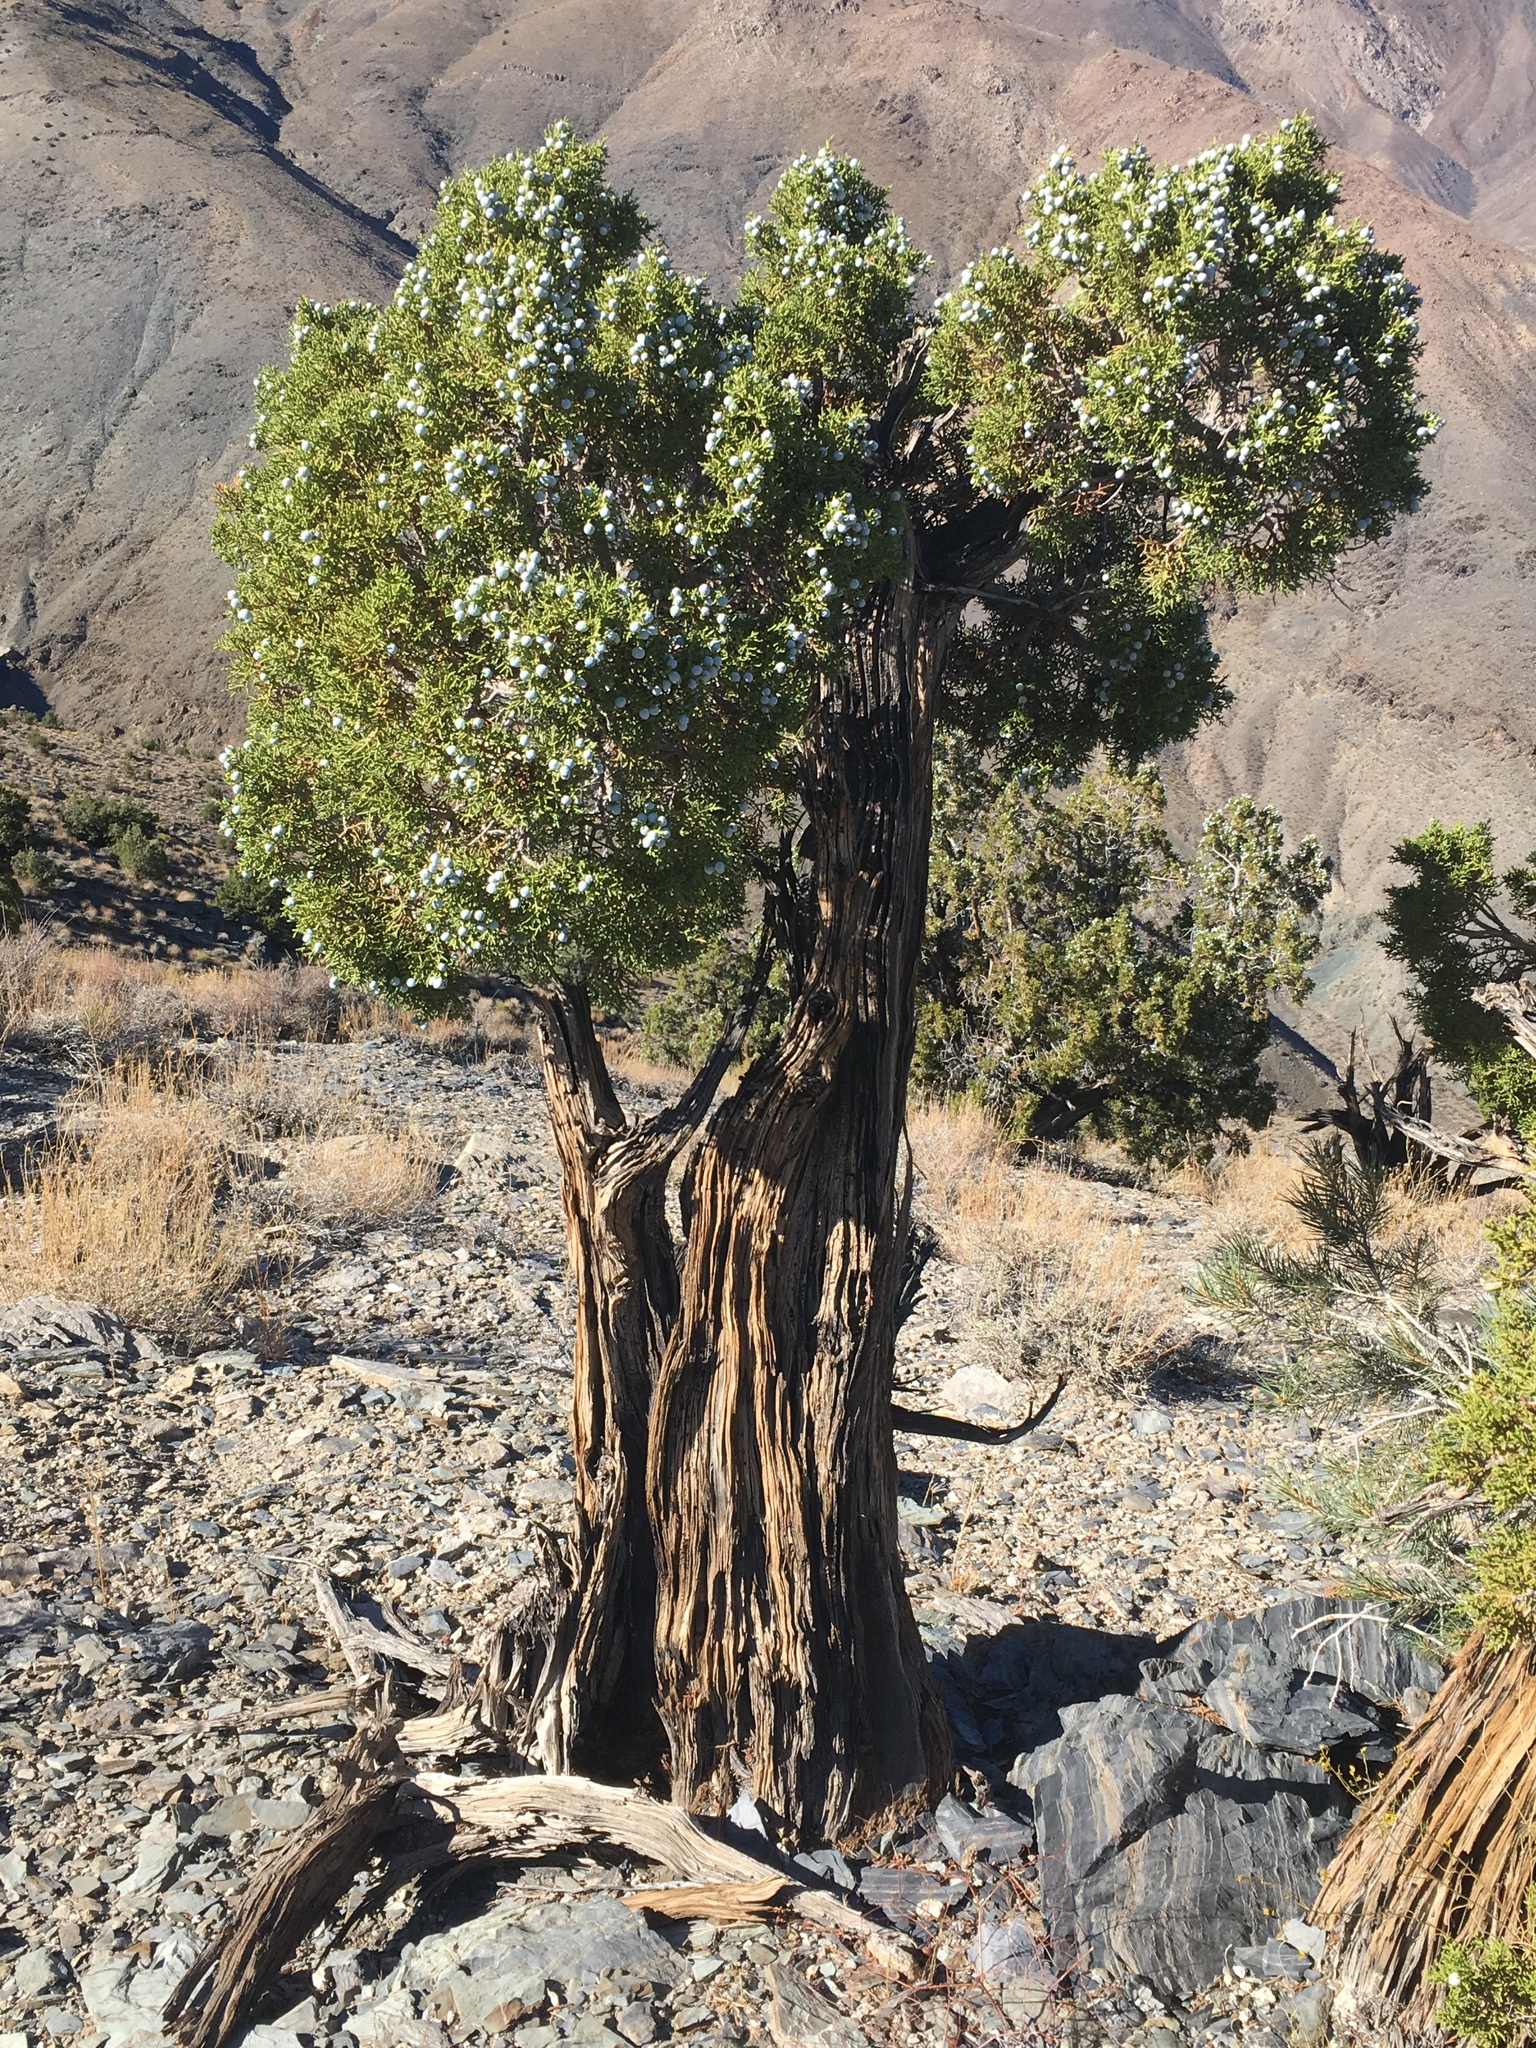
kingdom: Plantae
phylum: Tracheophyta
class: Pinopsida
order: Pinales
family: Cupressaceae
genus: Juniperus
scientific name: Juniperus osteosperma
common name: Utah juniper
